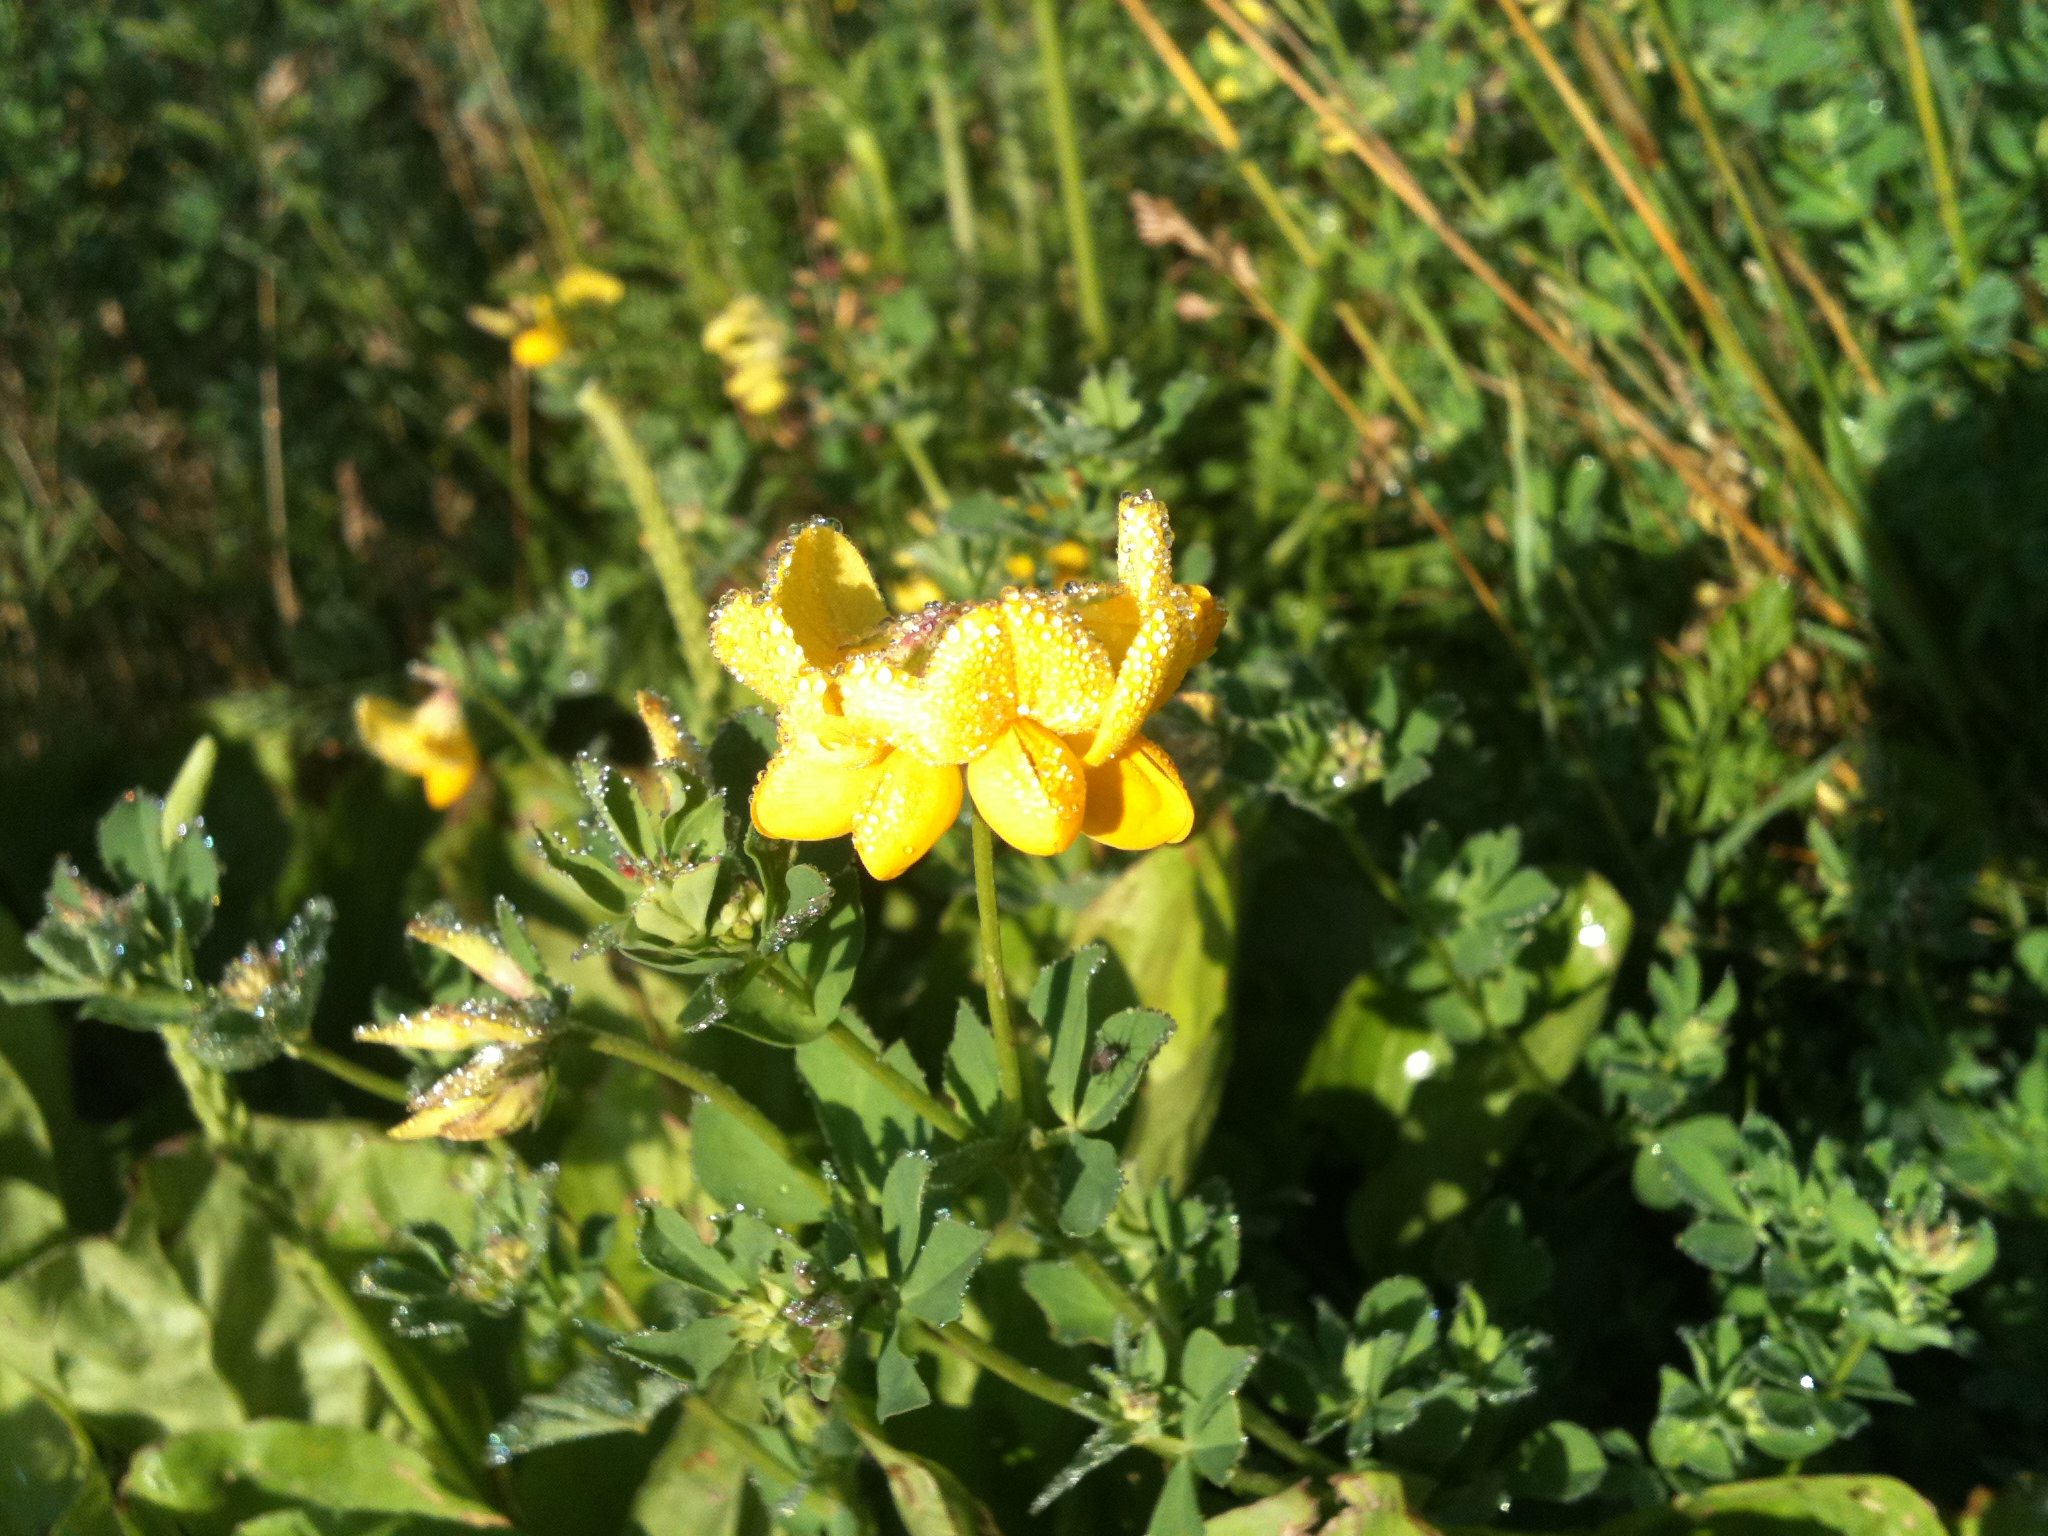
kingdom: Plantae
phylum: Tracheophyta
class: Magnoliopsida
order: Fabales
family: Fabaceae
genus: Lotus
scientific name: Lotus corniculatus
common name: Common bird's-foot-trefoil
